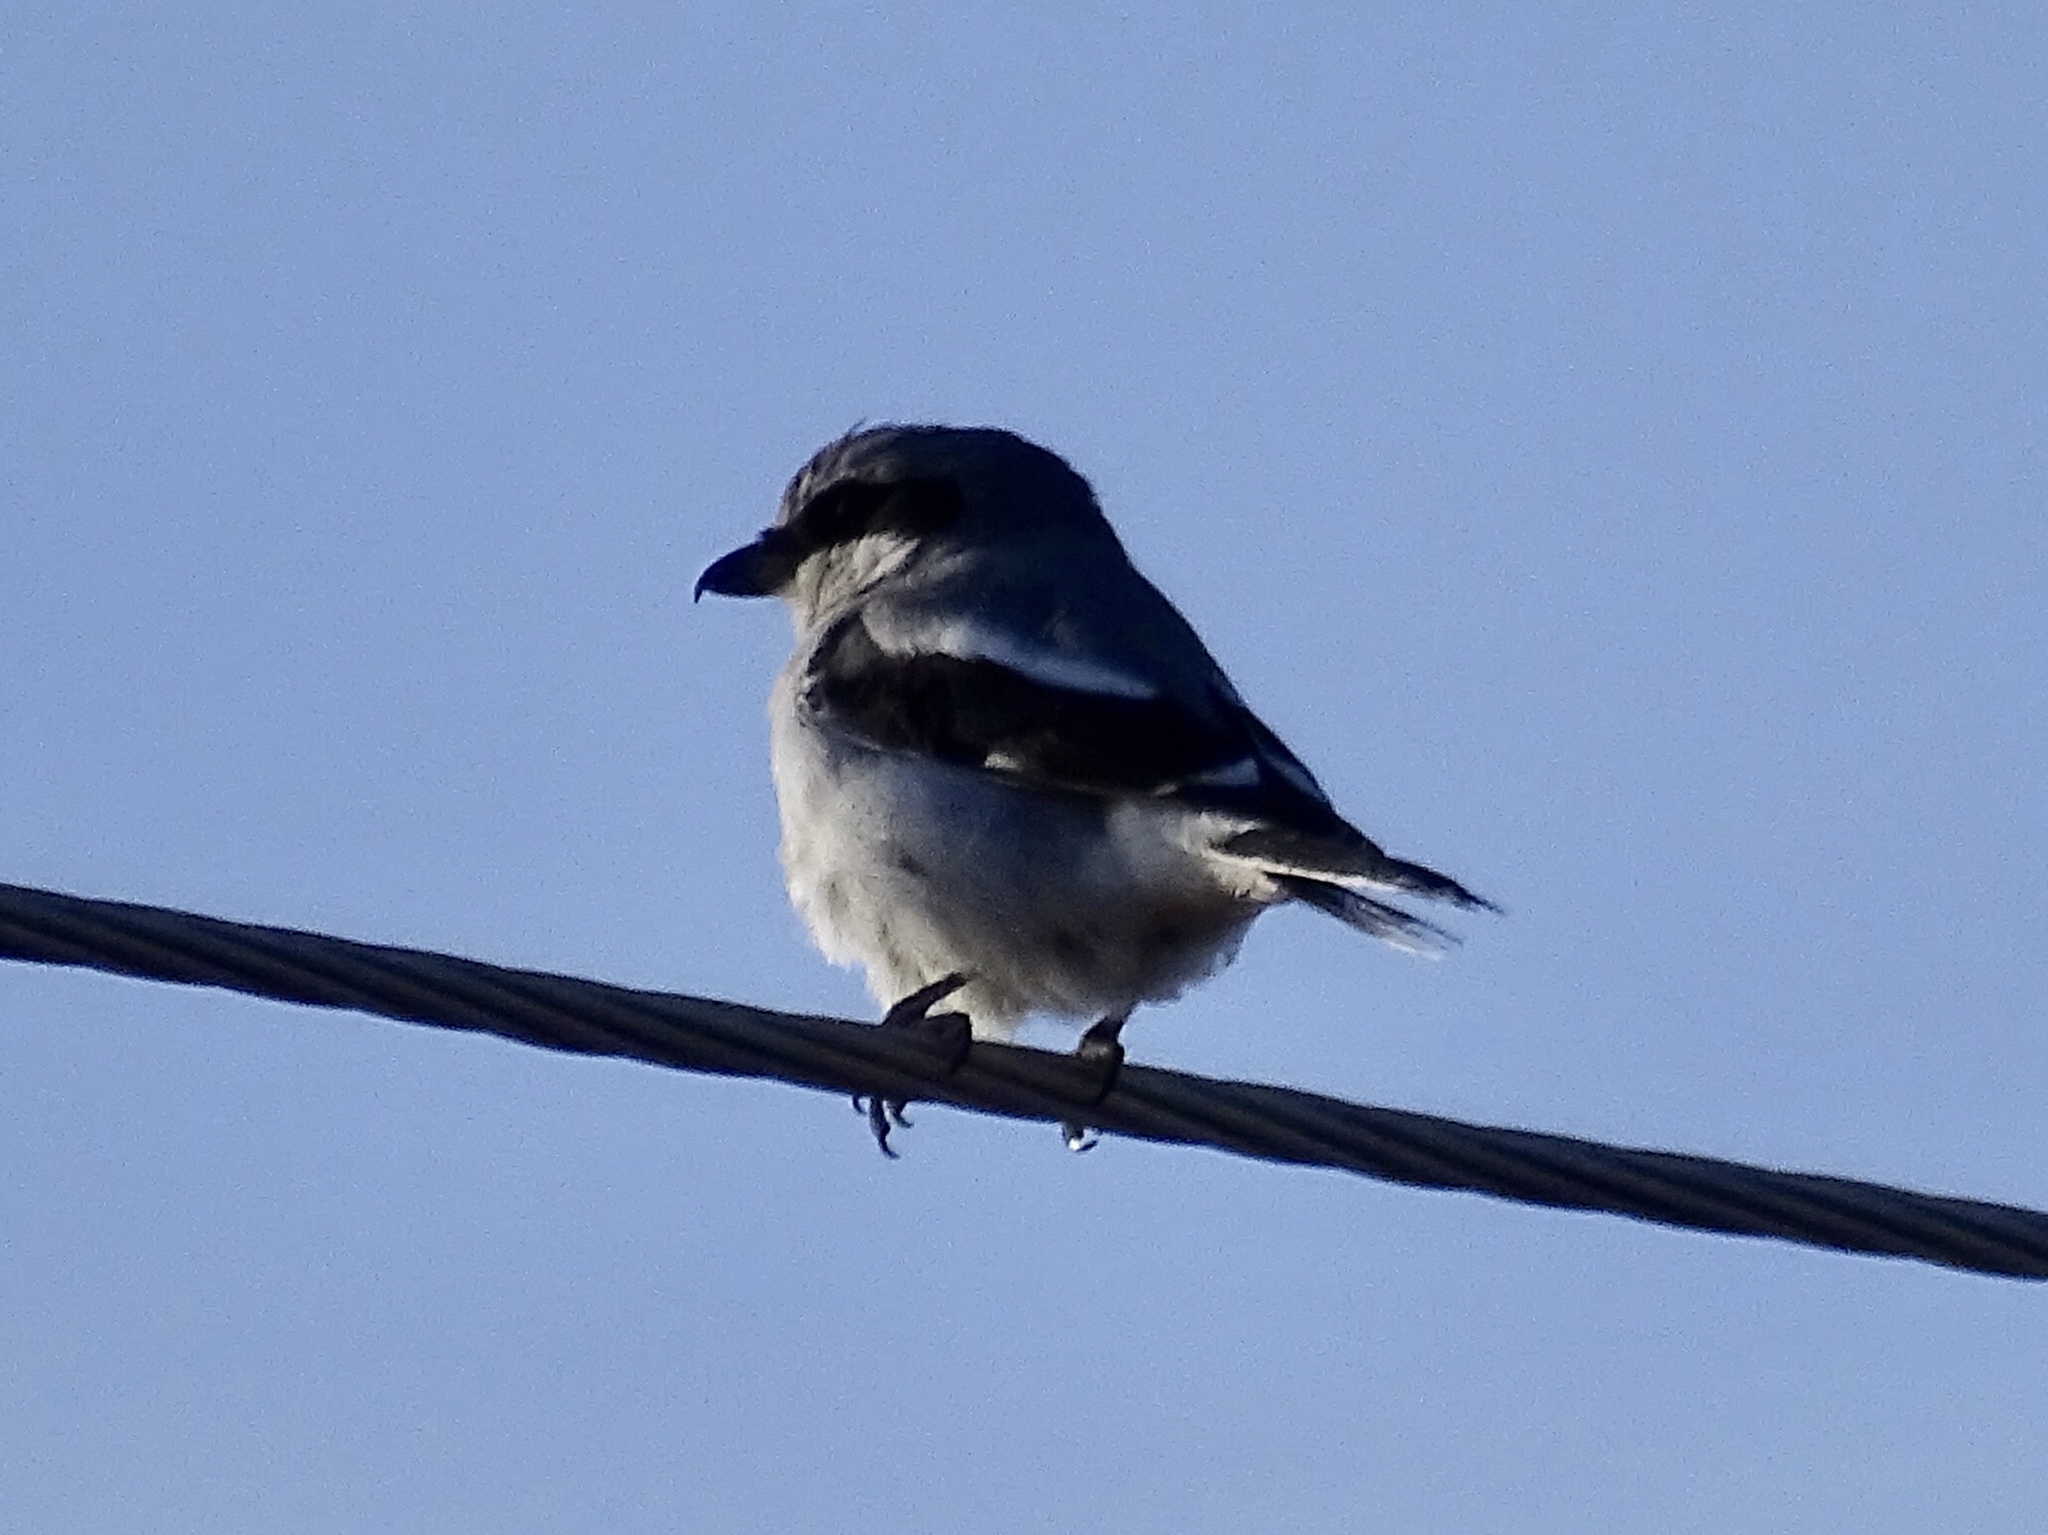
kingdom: Animalia
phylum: Chordata
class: Aves
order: Passeriformes
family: Laniidae
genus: Lanius
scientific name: Lanius ludovicianus
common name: Loggerhead shrike
